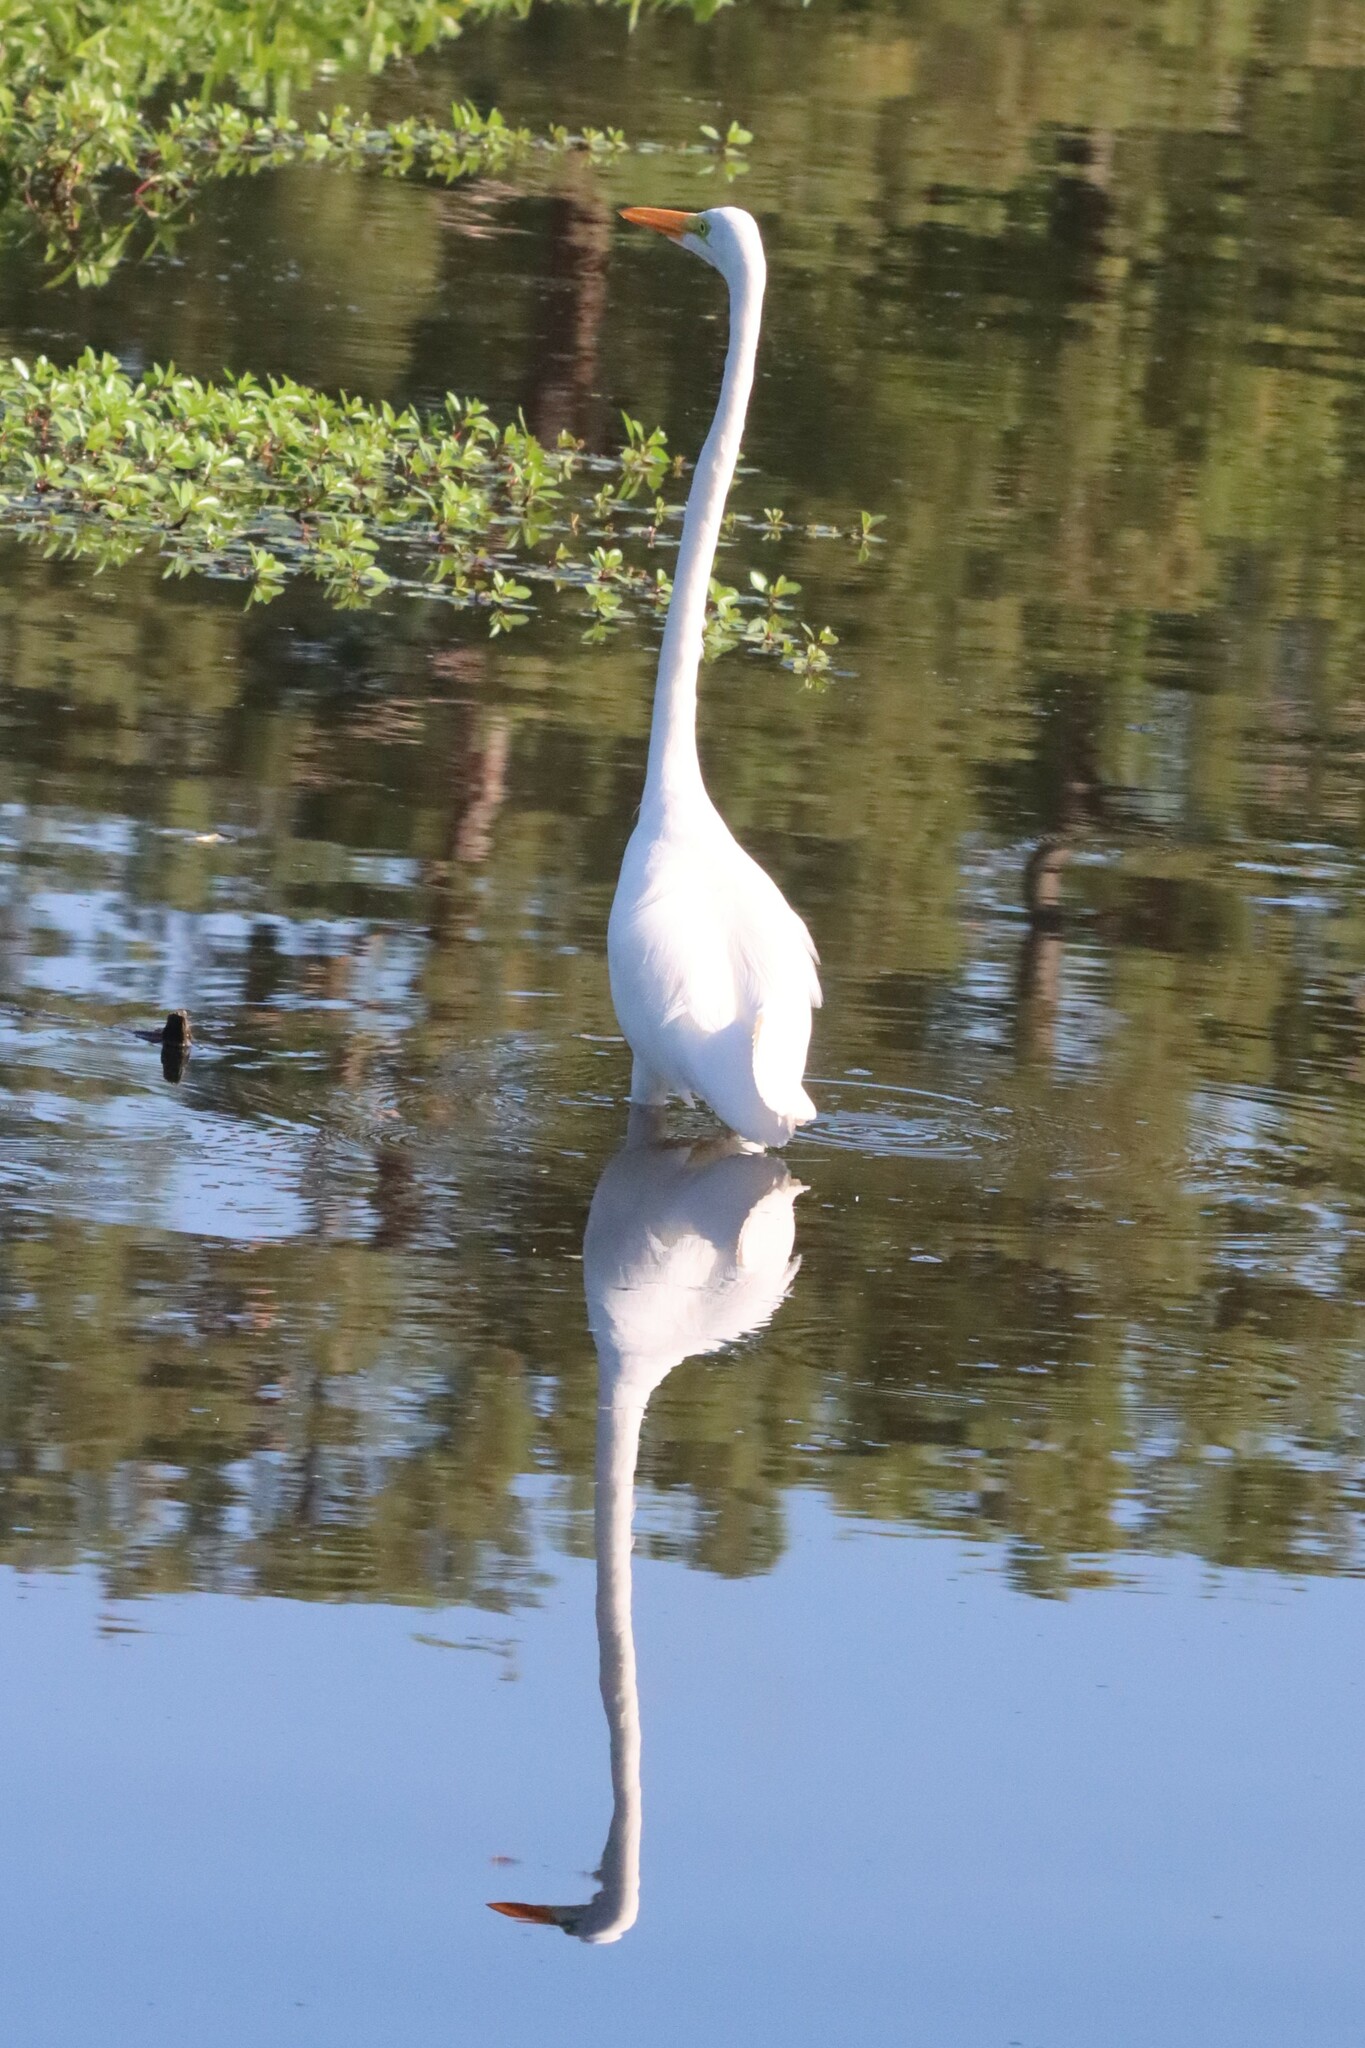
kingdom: Animalia
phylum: Chordata
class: Aves
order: Pelecaniformes
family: Ardeidae
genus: Ardea
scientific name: Ardea alba
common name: Great egret
